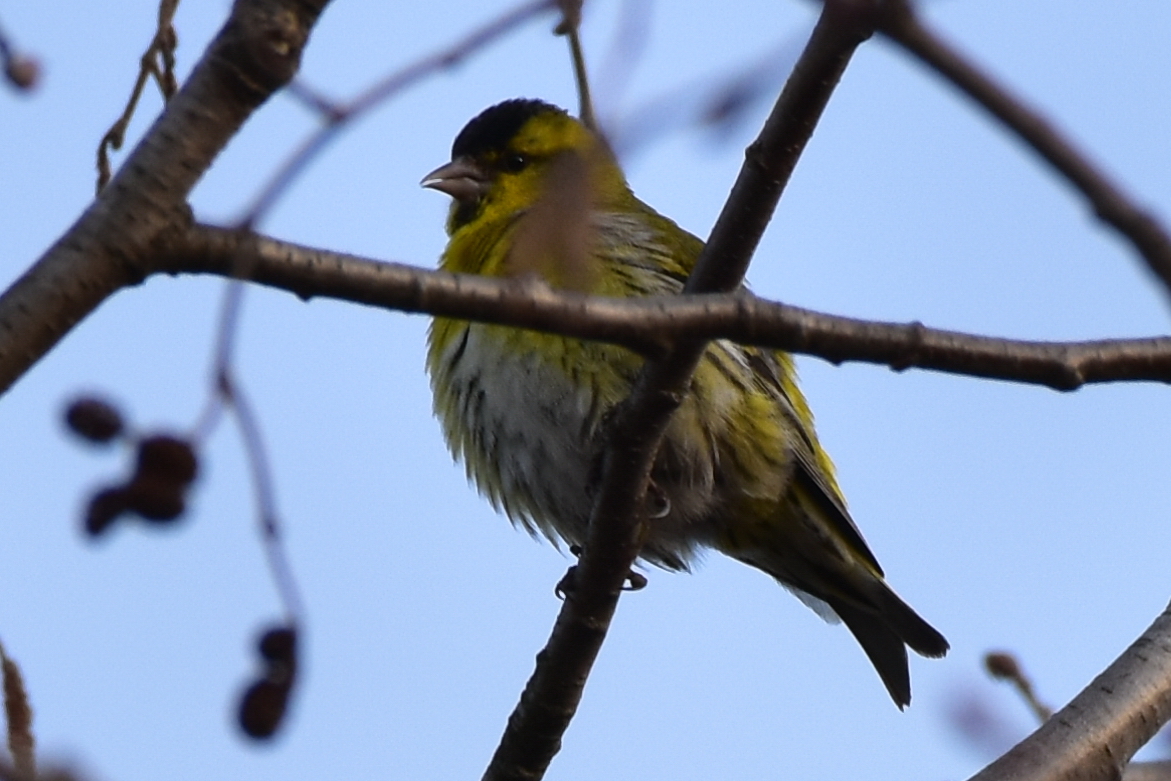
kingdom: Animalia
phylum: Chordata
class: Aves
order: Passeriformes
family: Fringillidae
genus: Spinus
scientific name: Spinus spinus
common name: Eurasian siskin
